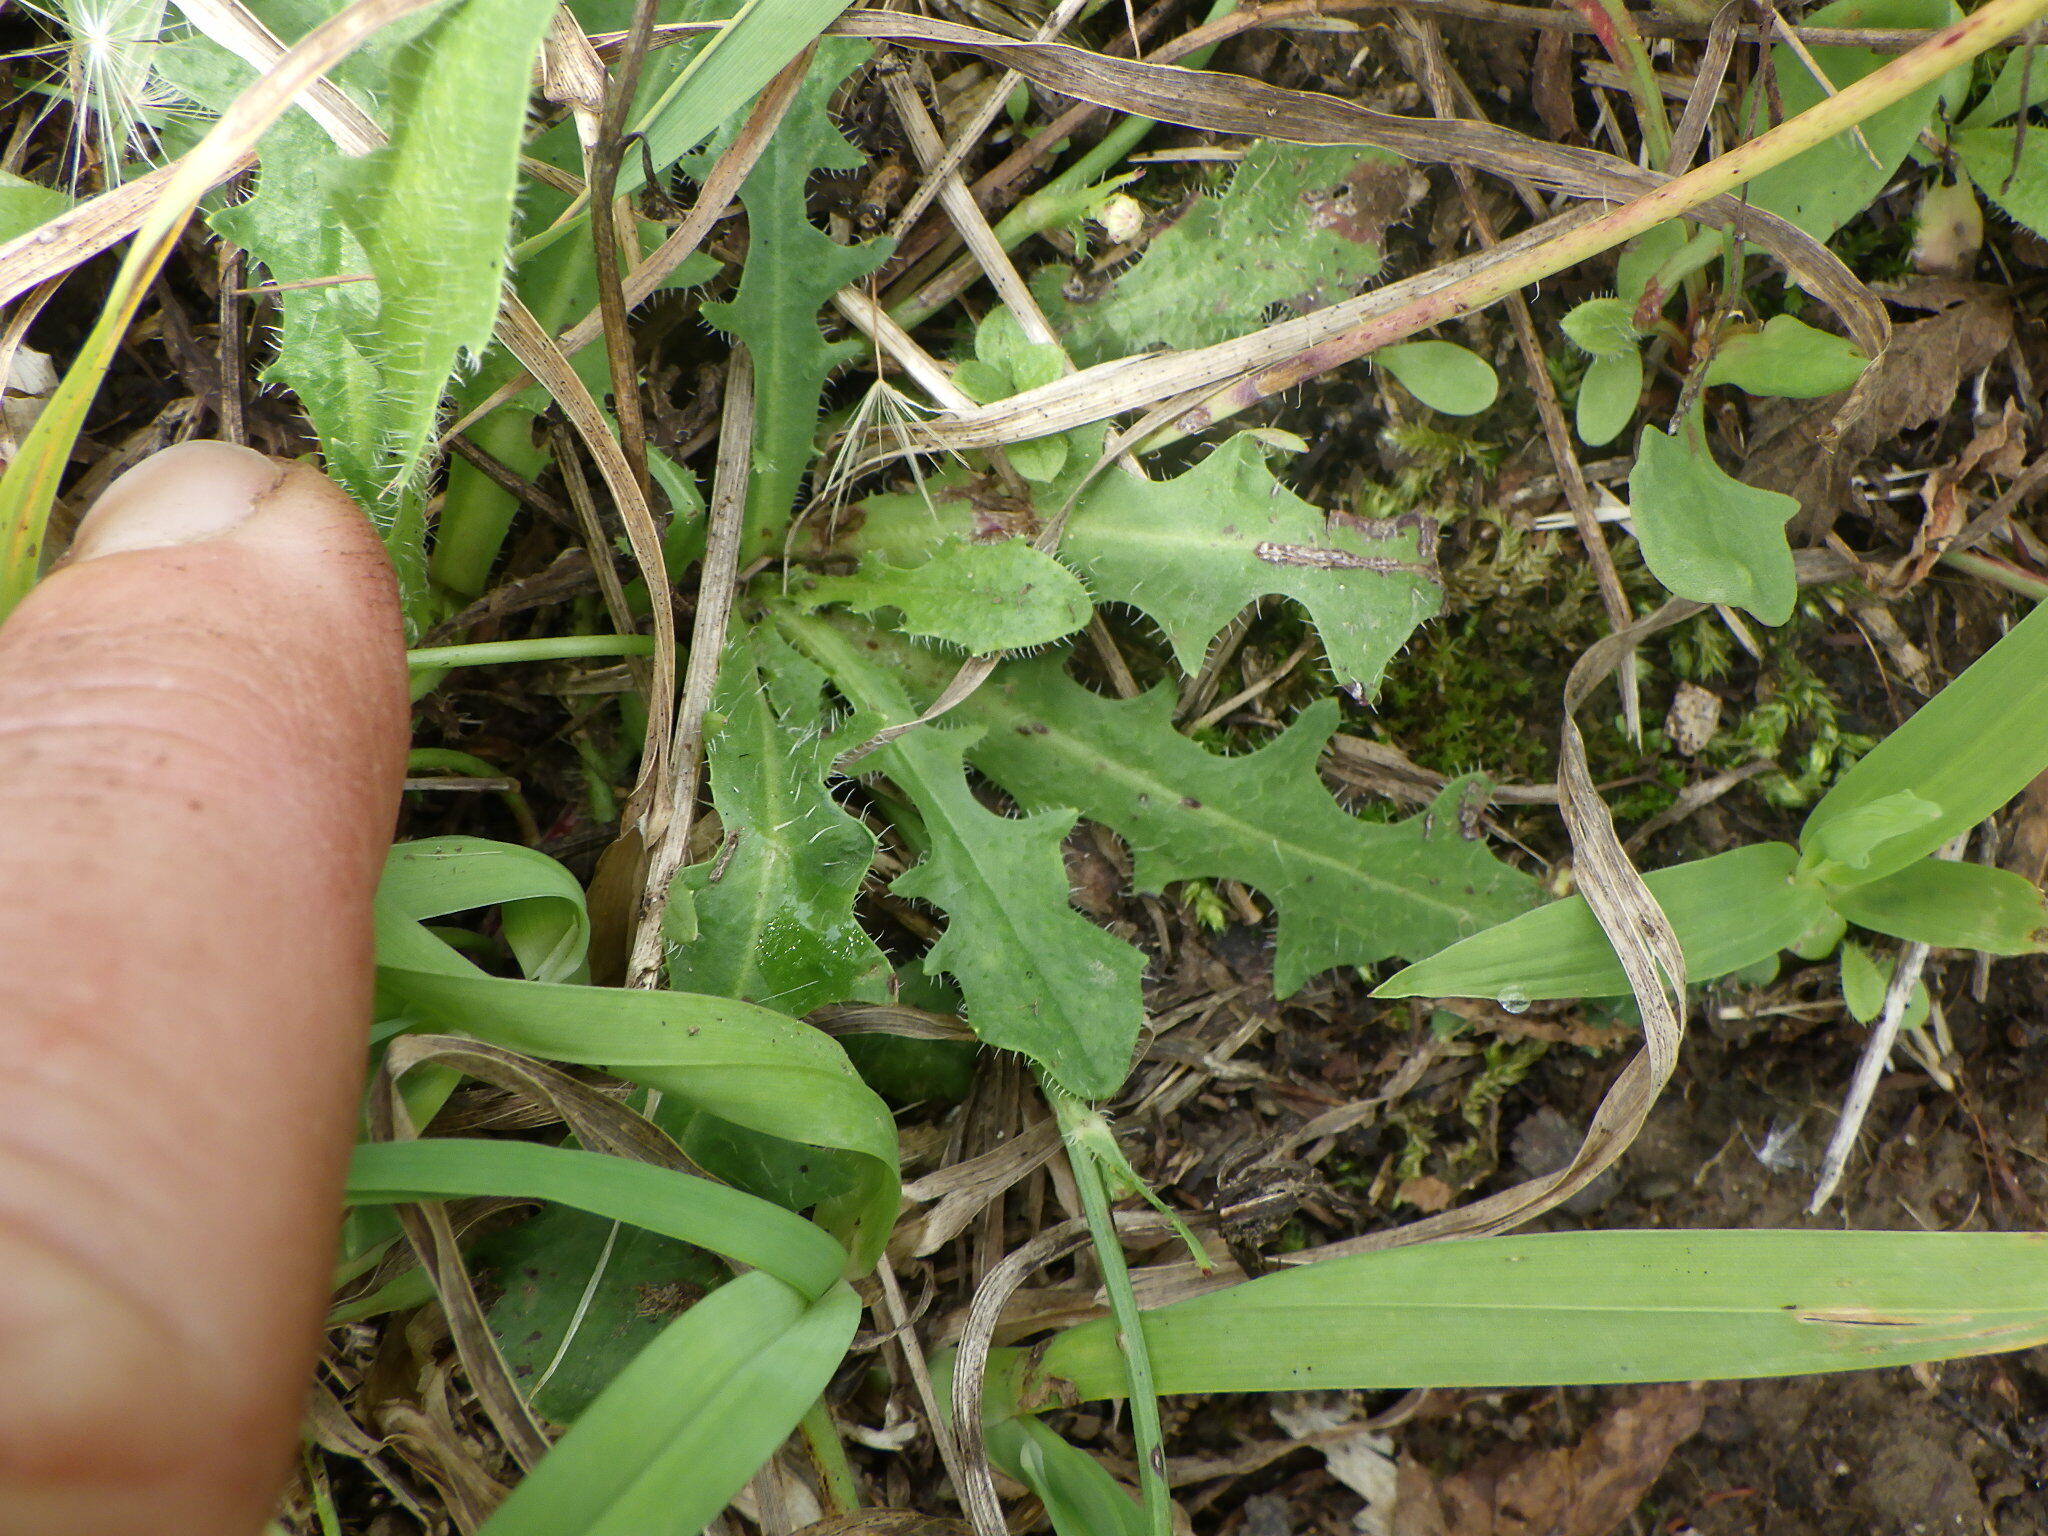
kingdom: Plantae
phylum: Tracheophyta
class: Magnoliopsida
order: Asterales
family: Asteraceae
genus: Hypochaeris
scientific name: Hypochaeris radicata
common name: Flatweed
